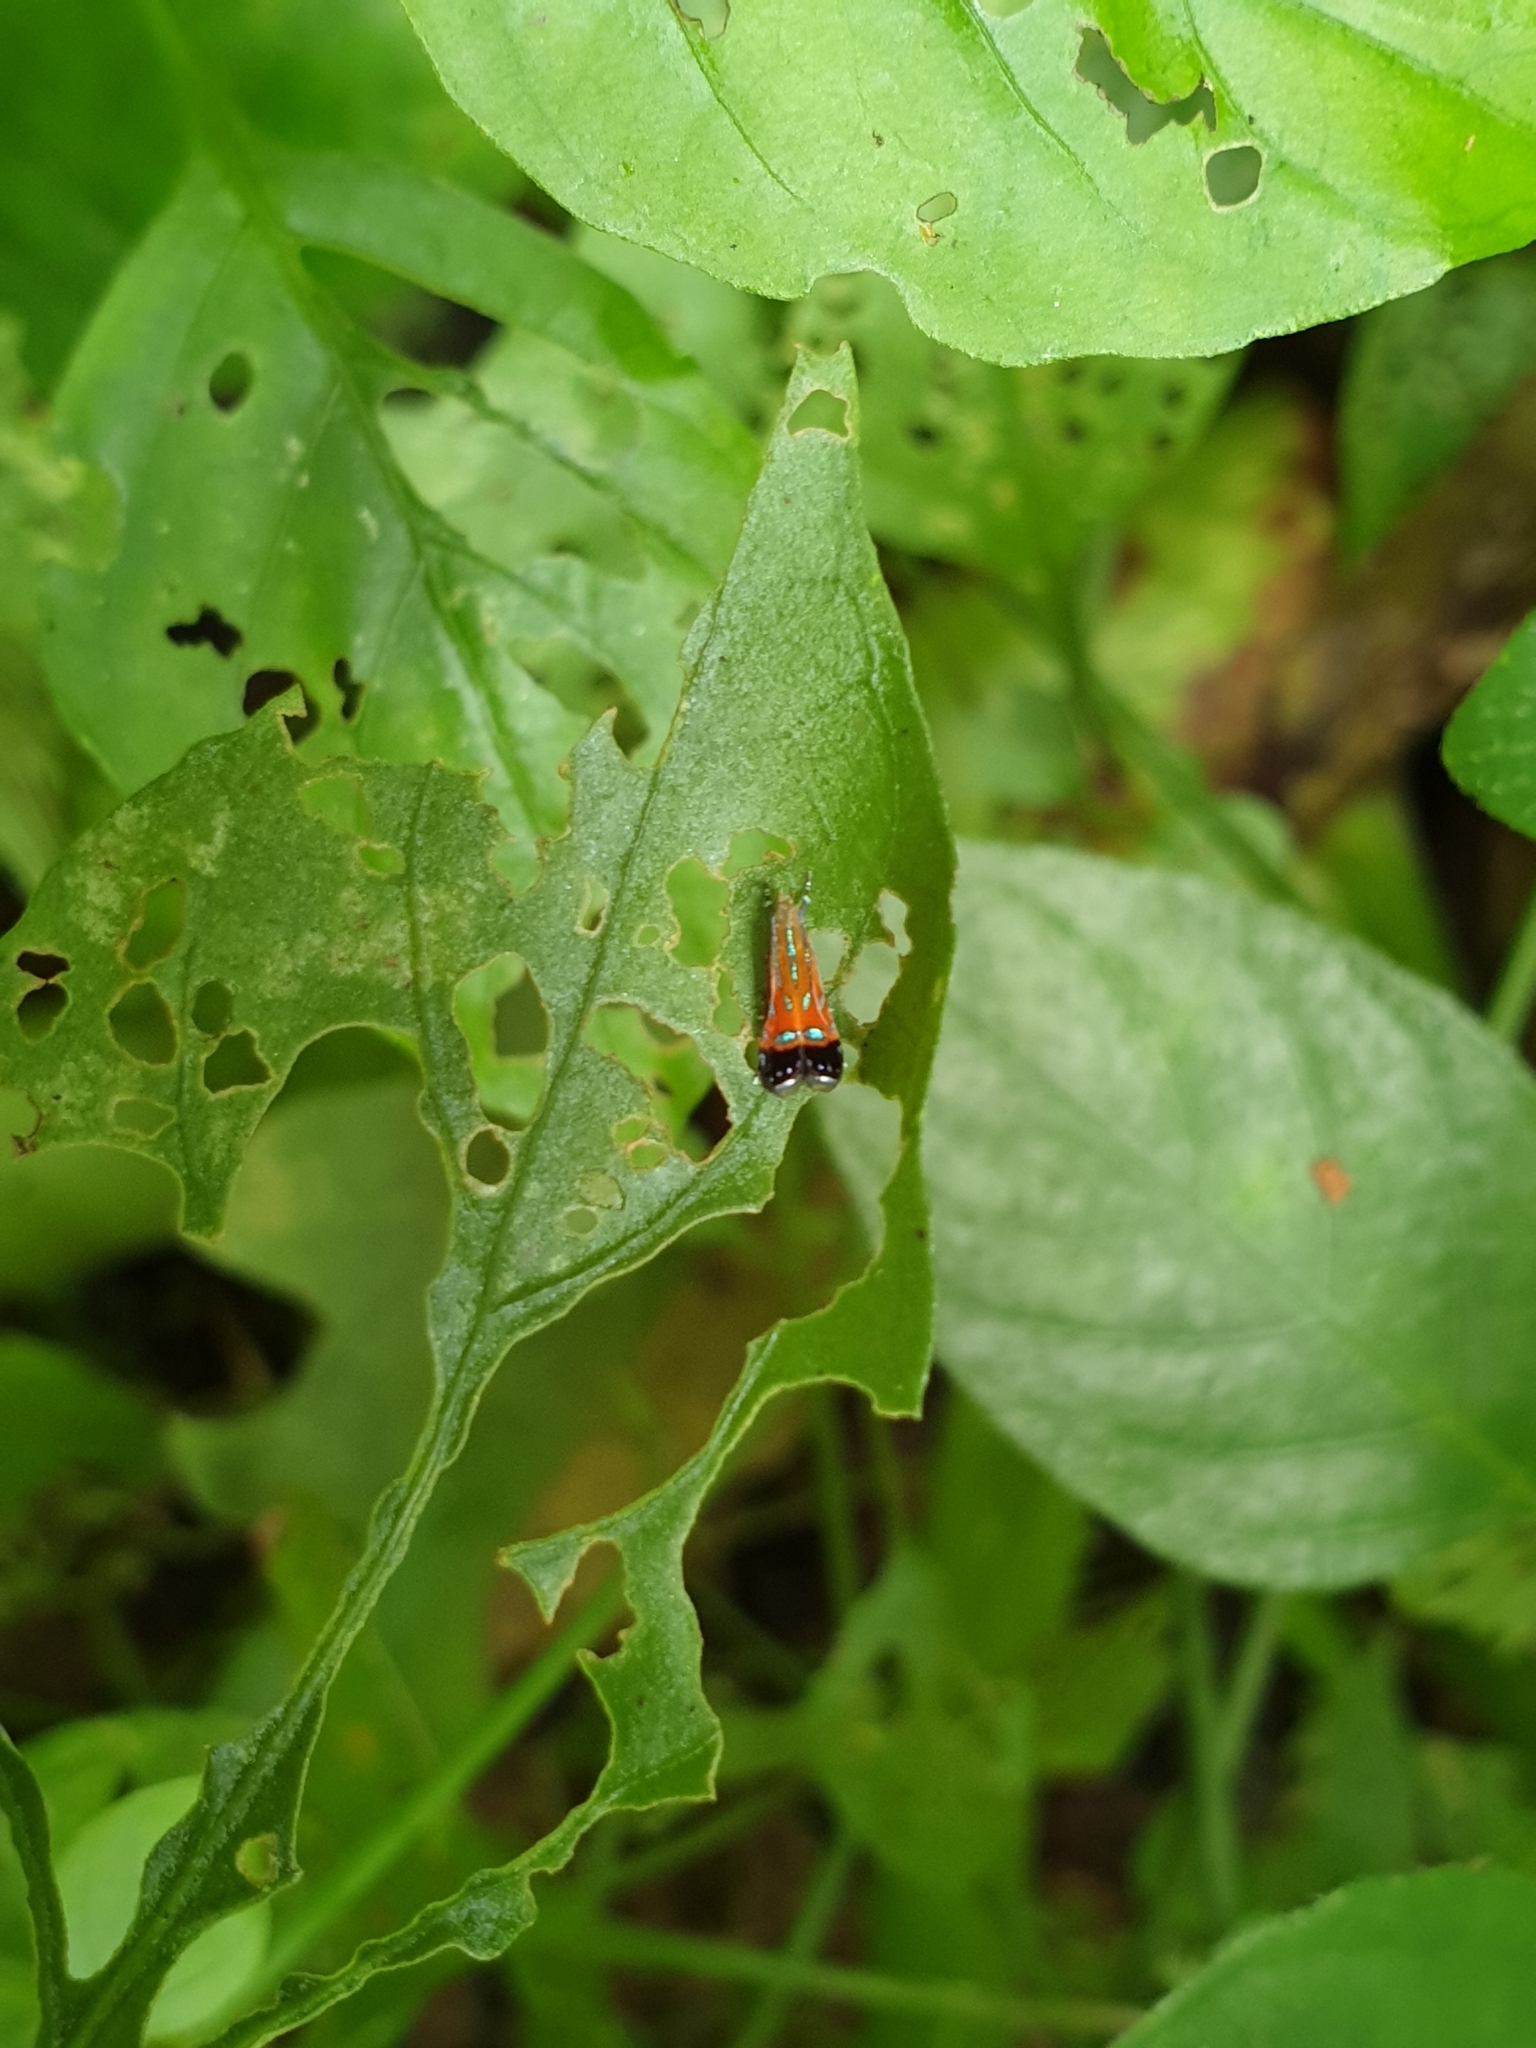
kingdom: Animalia
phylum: Arthropoda
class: Insecta
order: Lepidoptera
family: Gelechiidae
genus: Tricyanaula
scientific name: Tricyanaula aurantiaca
